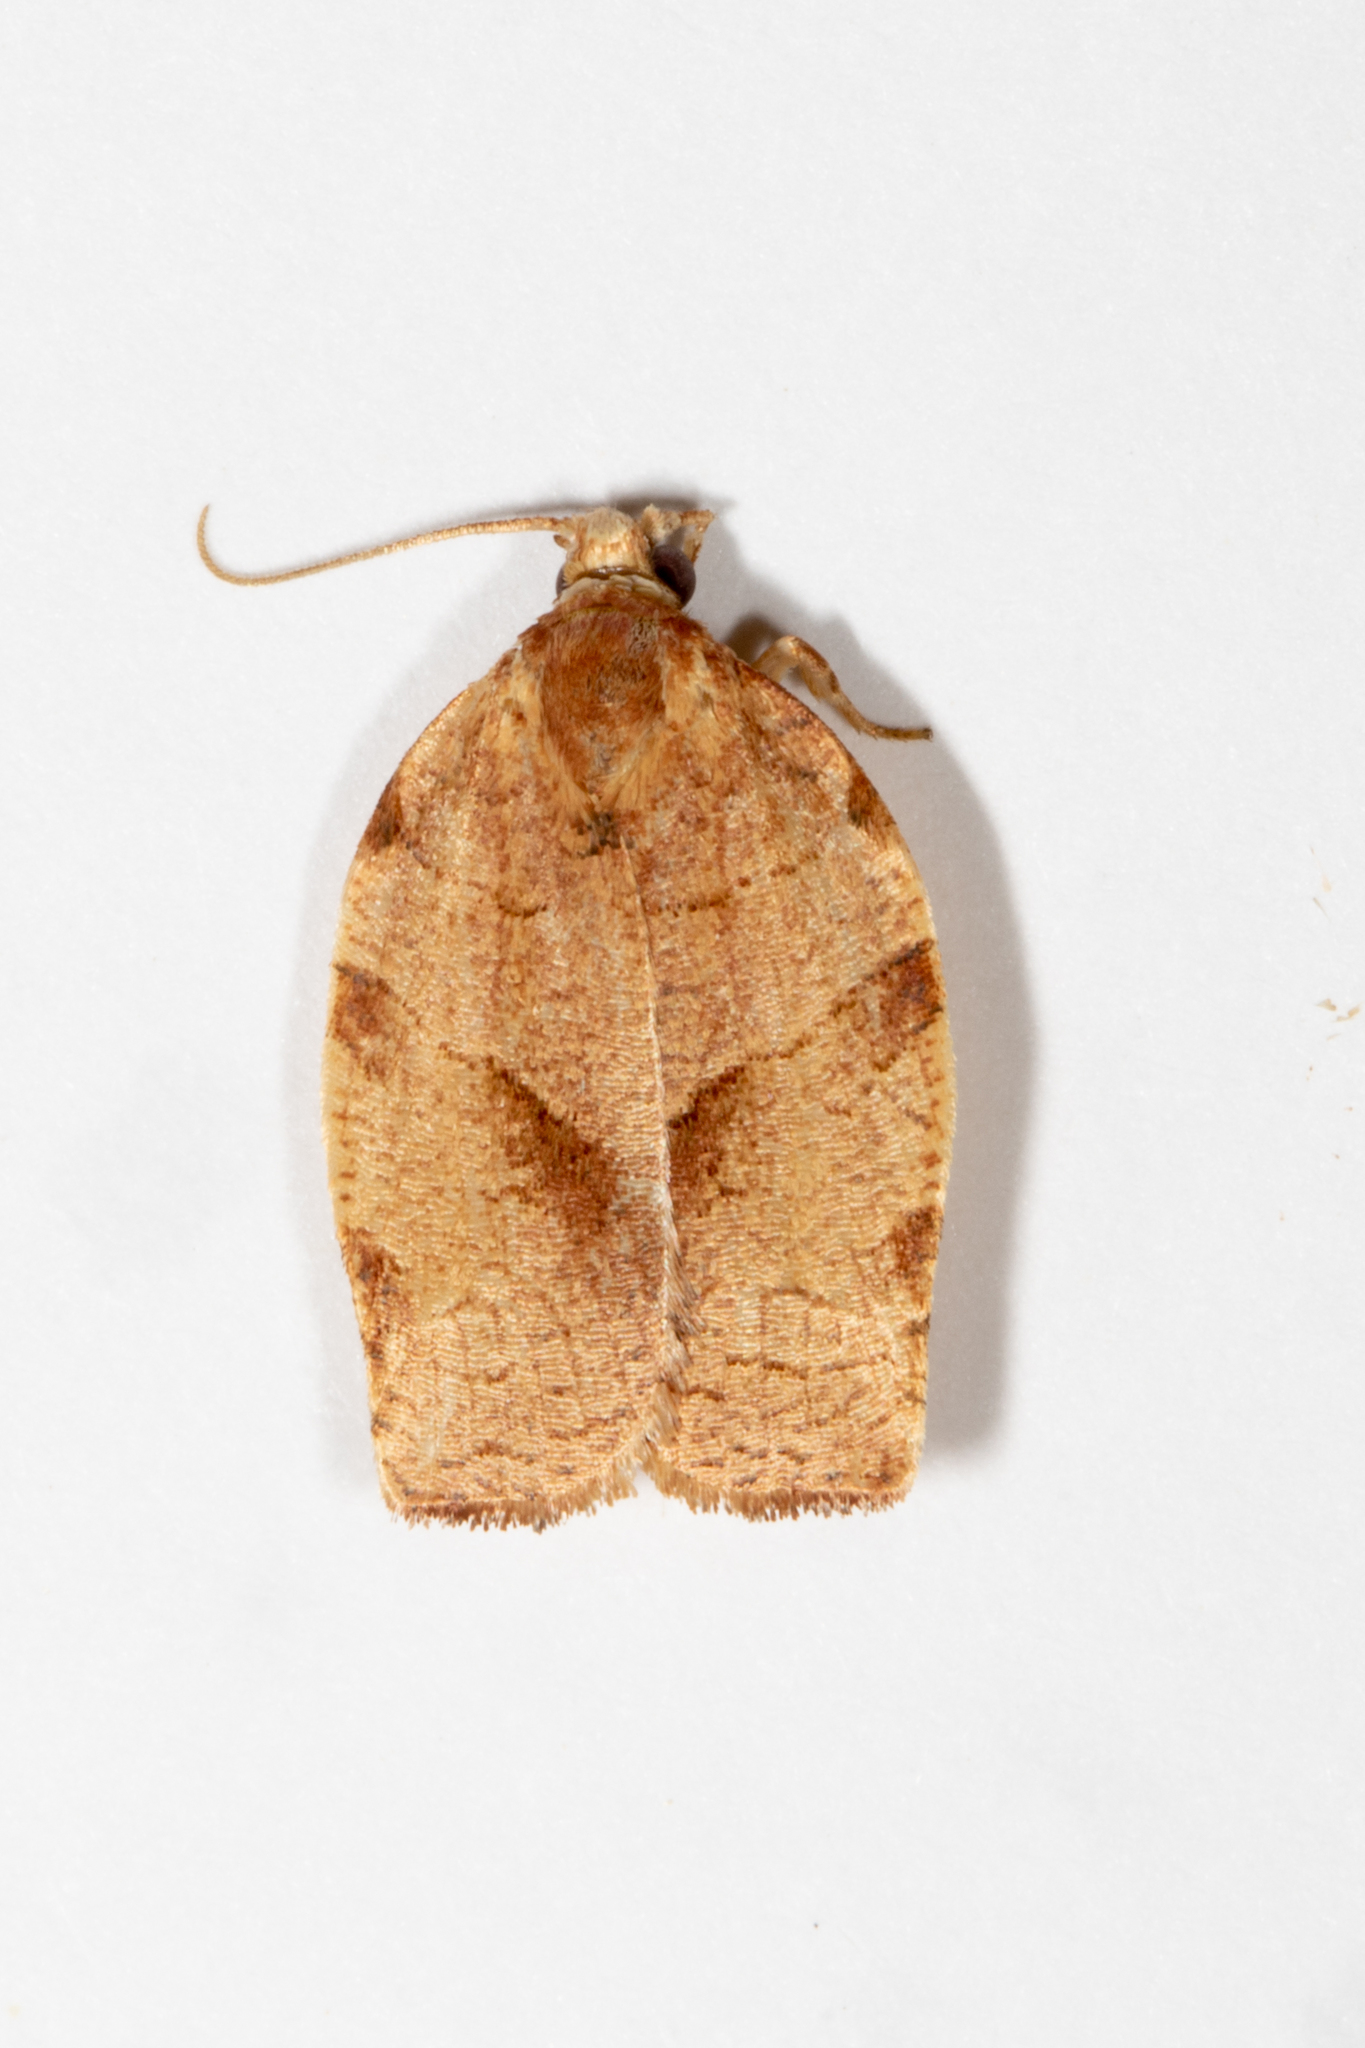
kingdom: Animalia
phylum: Arthropoda
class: Insecta
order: Lepidoptera
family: Tortricidae
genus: Choristoneura
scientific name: Choristoneura rosaceana
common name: Oblique-banded leafroller moth
